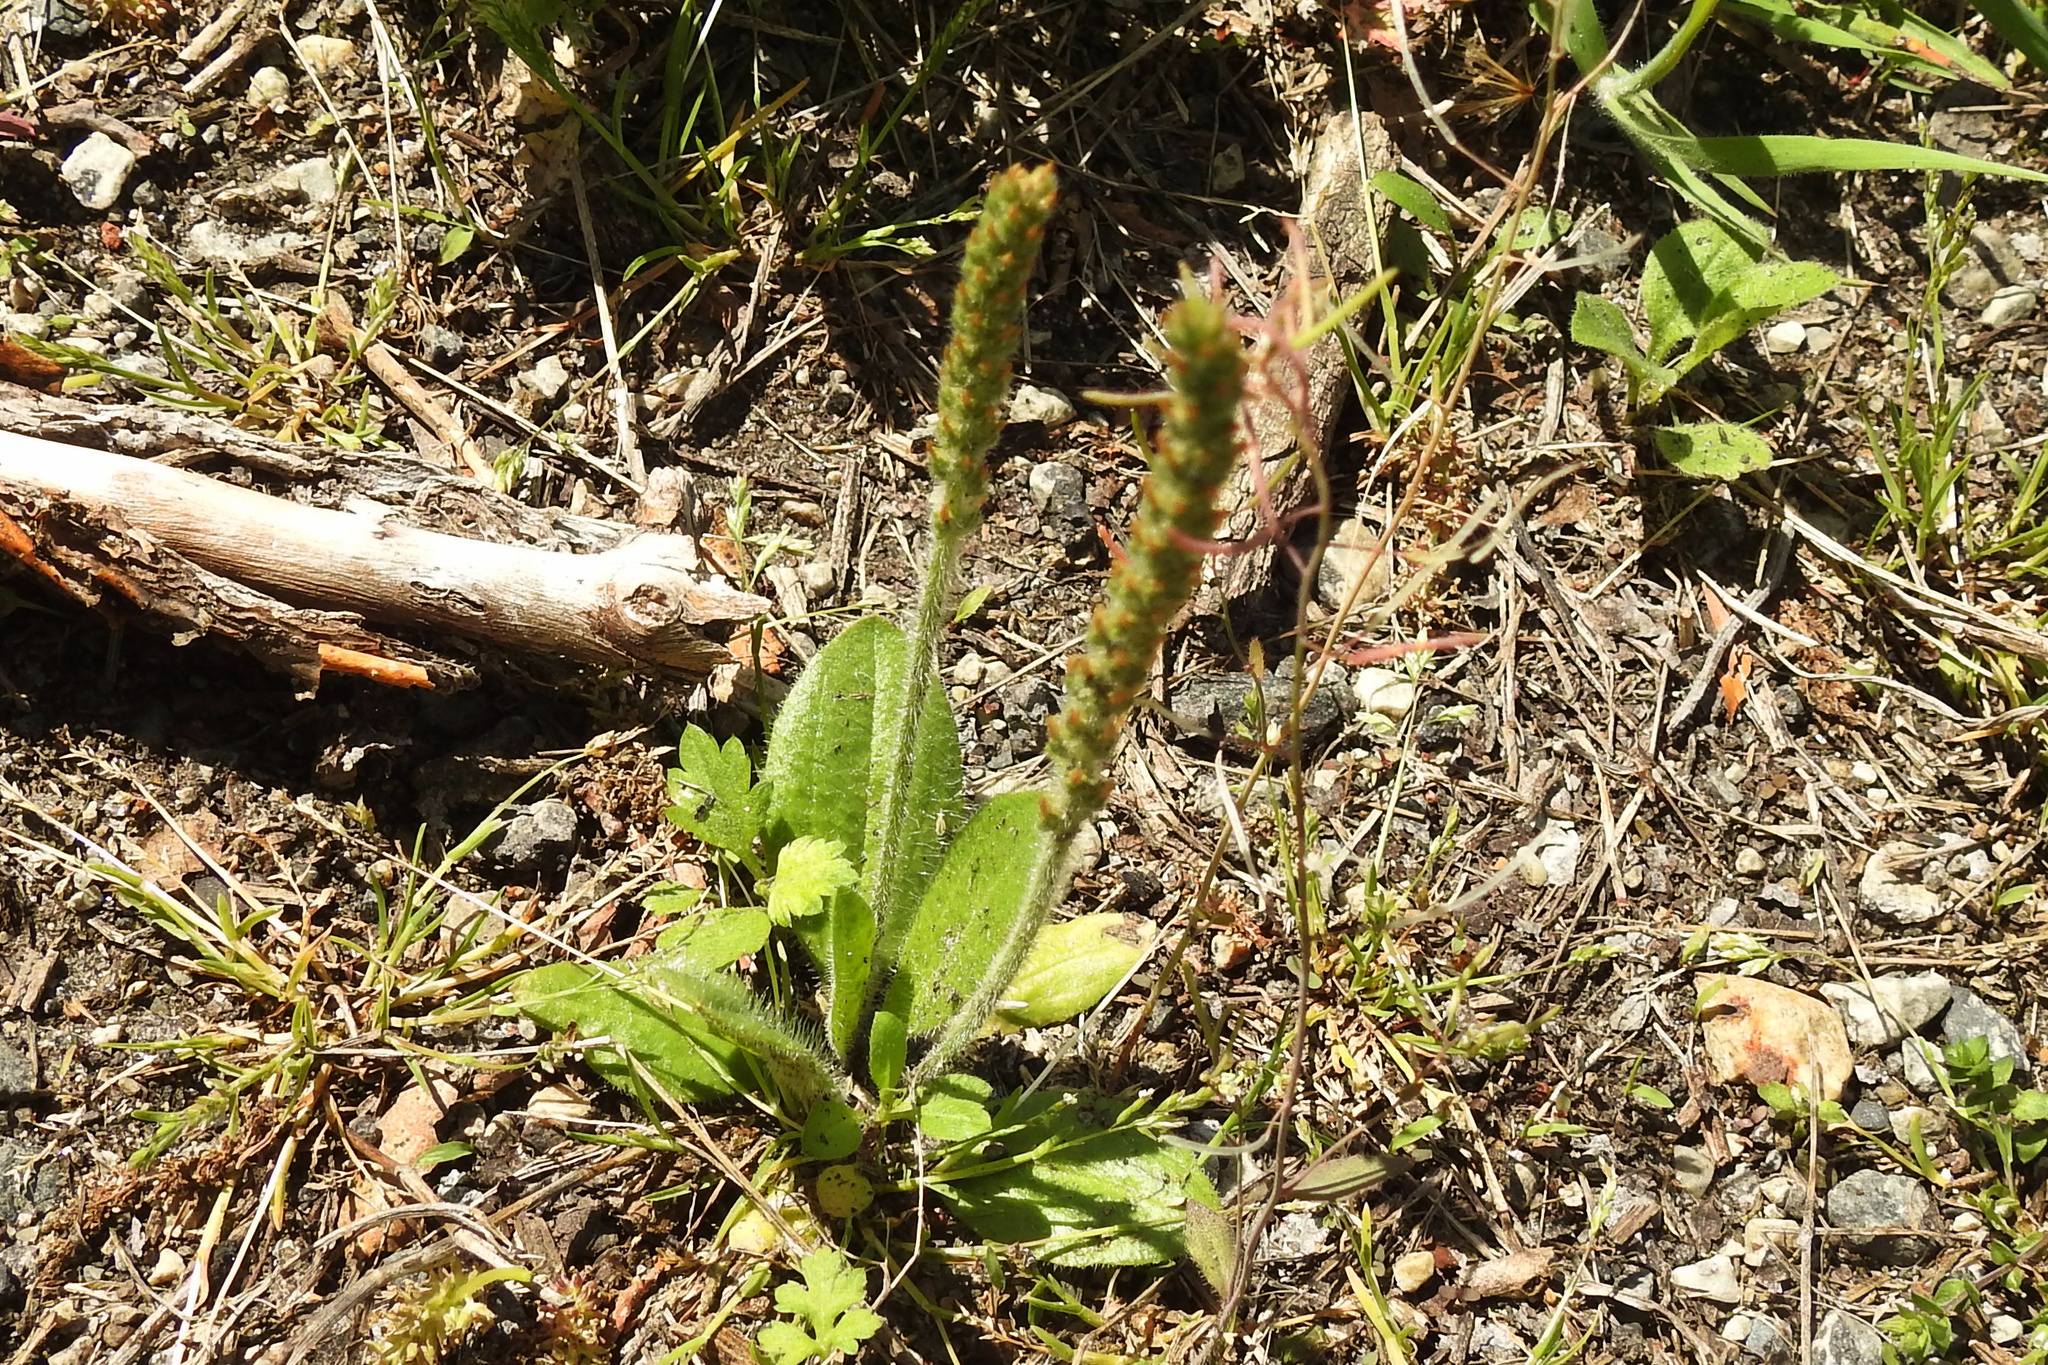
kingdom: Plantae
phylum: Tracheophyta
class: Magnoliopsida
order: Lamiales
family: Plantaginaceae
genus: Plantago
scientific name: Plantago virginica
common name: Hoary plantain
